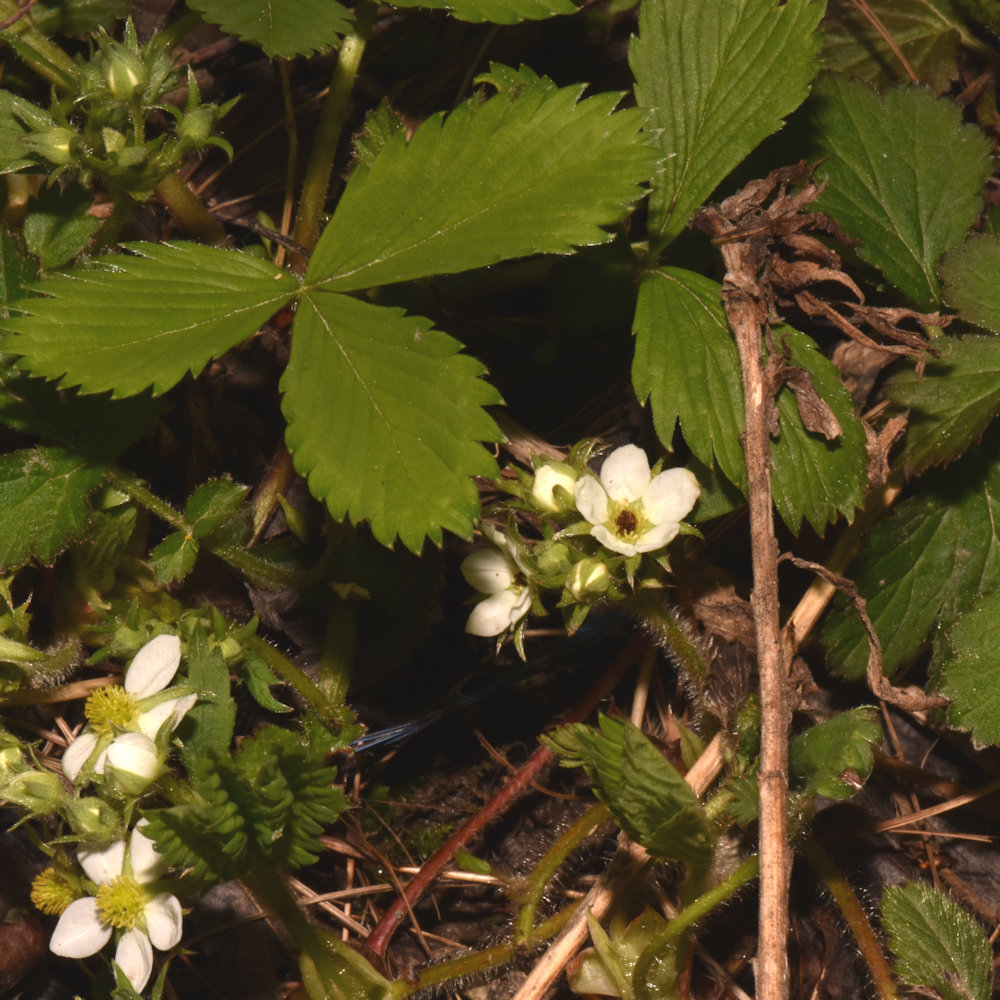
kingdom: Plantae
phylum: Tracheophyta
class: Magnoliopsida
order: Rosales
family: Rosaceae
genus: Fragaria
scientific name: Fragaria virginiana
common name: Thickleaved wild strawberry
